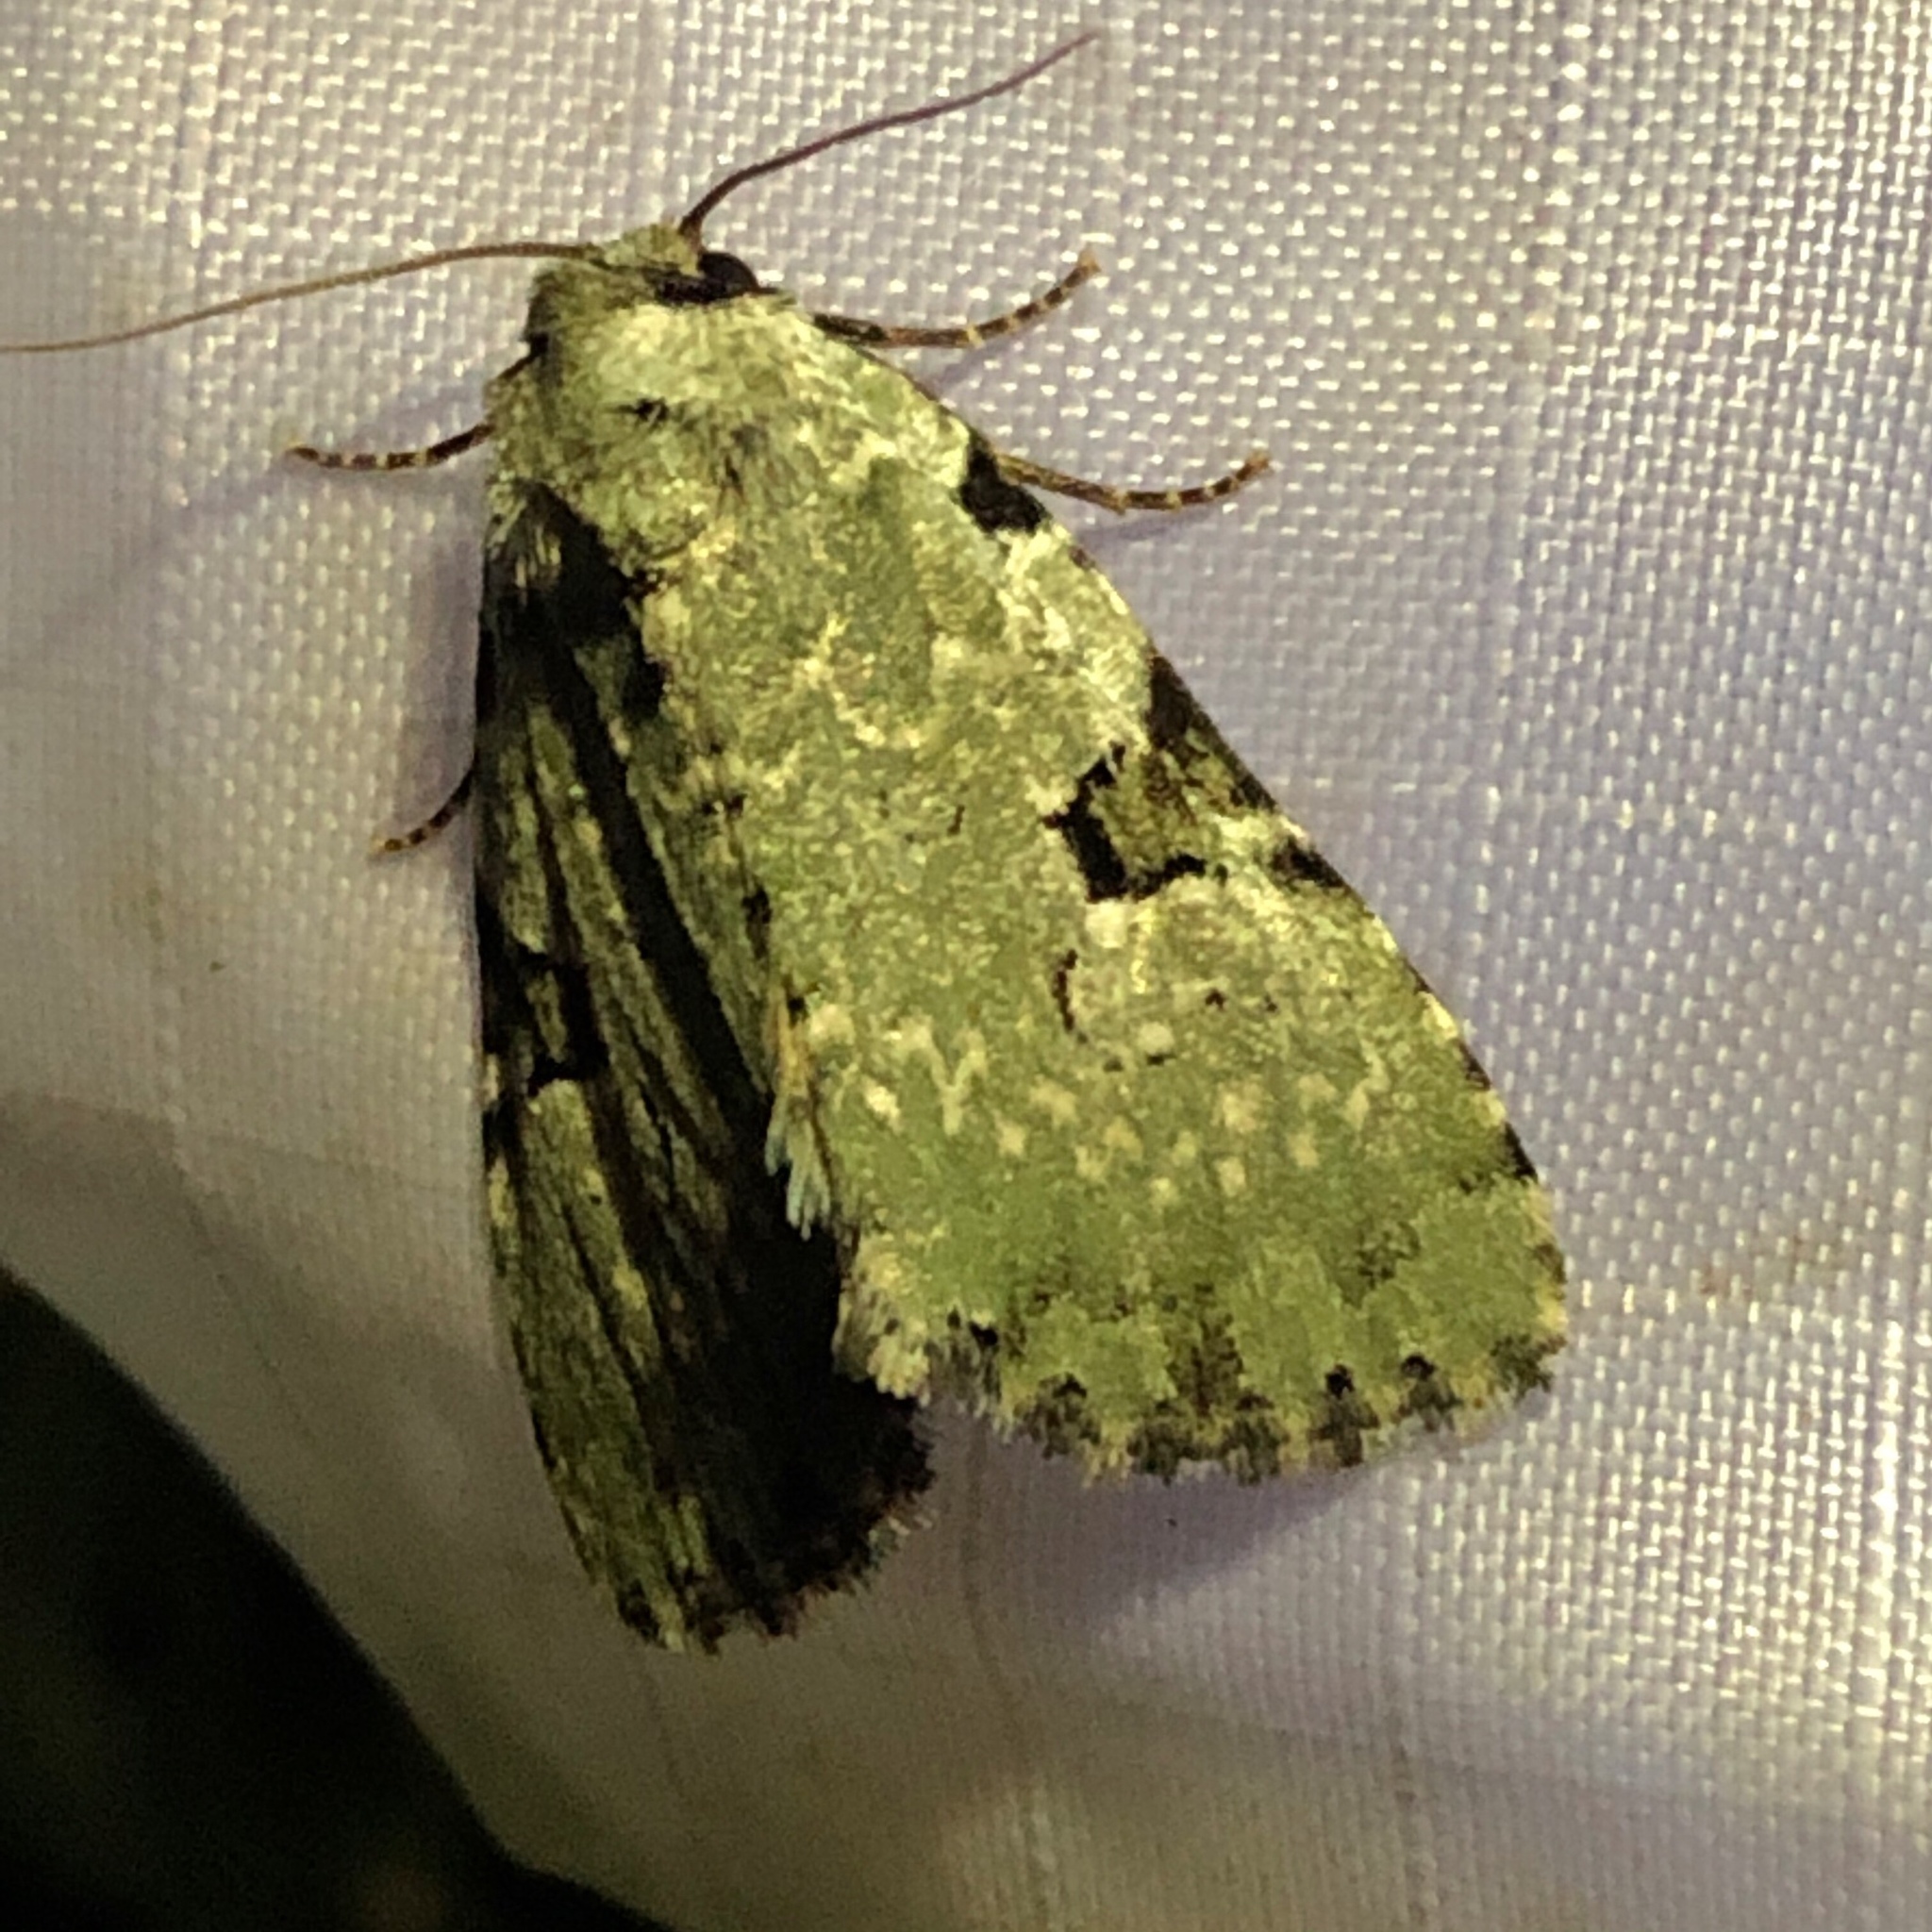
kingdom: Animalia
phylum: Arthropoda
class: Insecta
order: Lepidoptera
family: Noctuidae
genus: Leuconycta
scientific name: Leuconycta diphteroides
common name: Green leuconycta moth
